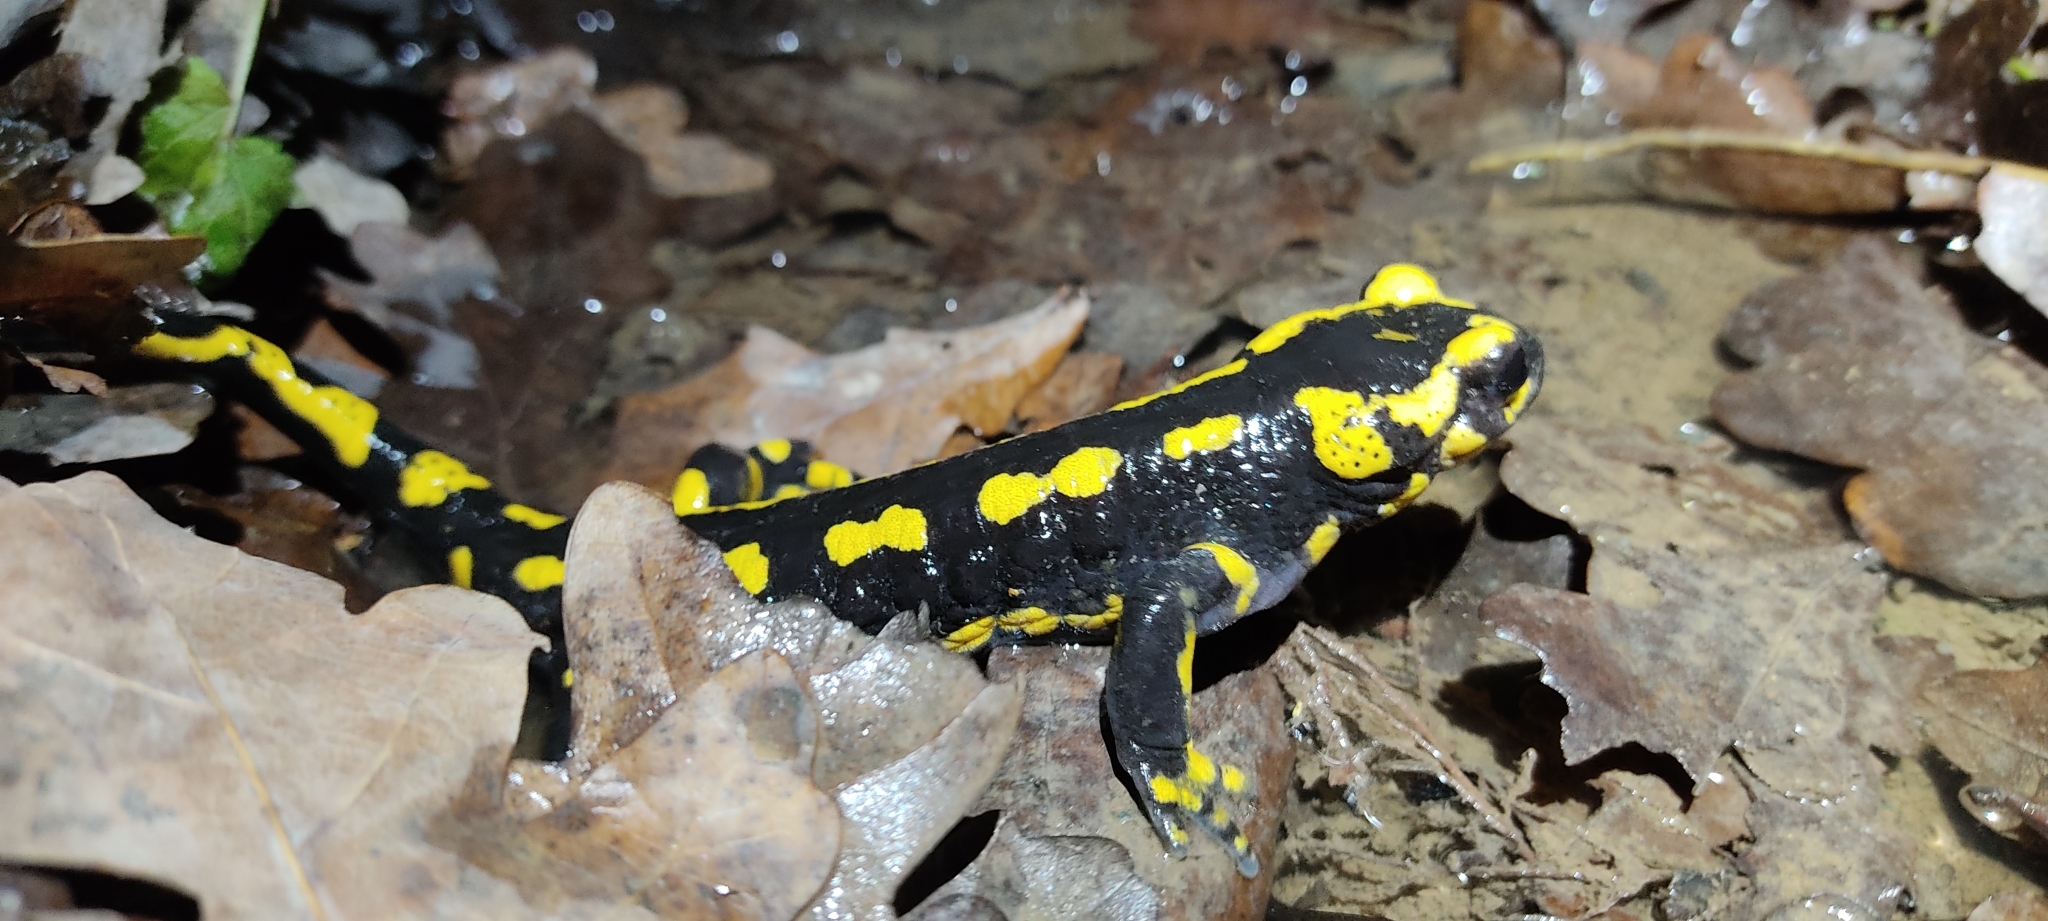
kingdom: Animalia
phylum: Chordata
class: Amphibia
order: Caudata
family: Salamandridae
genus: Salamandra
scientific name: Salamandra salamandra
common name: Fire salamander
